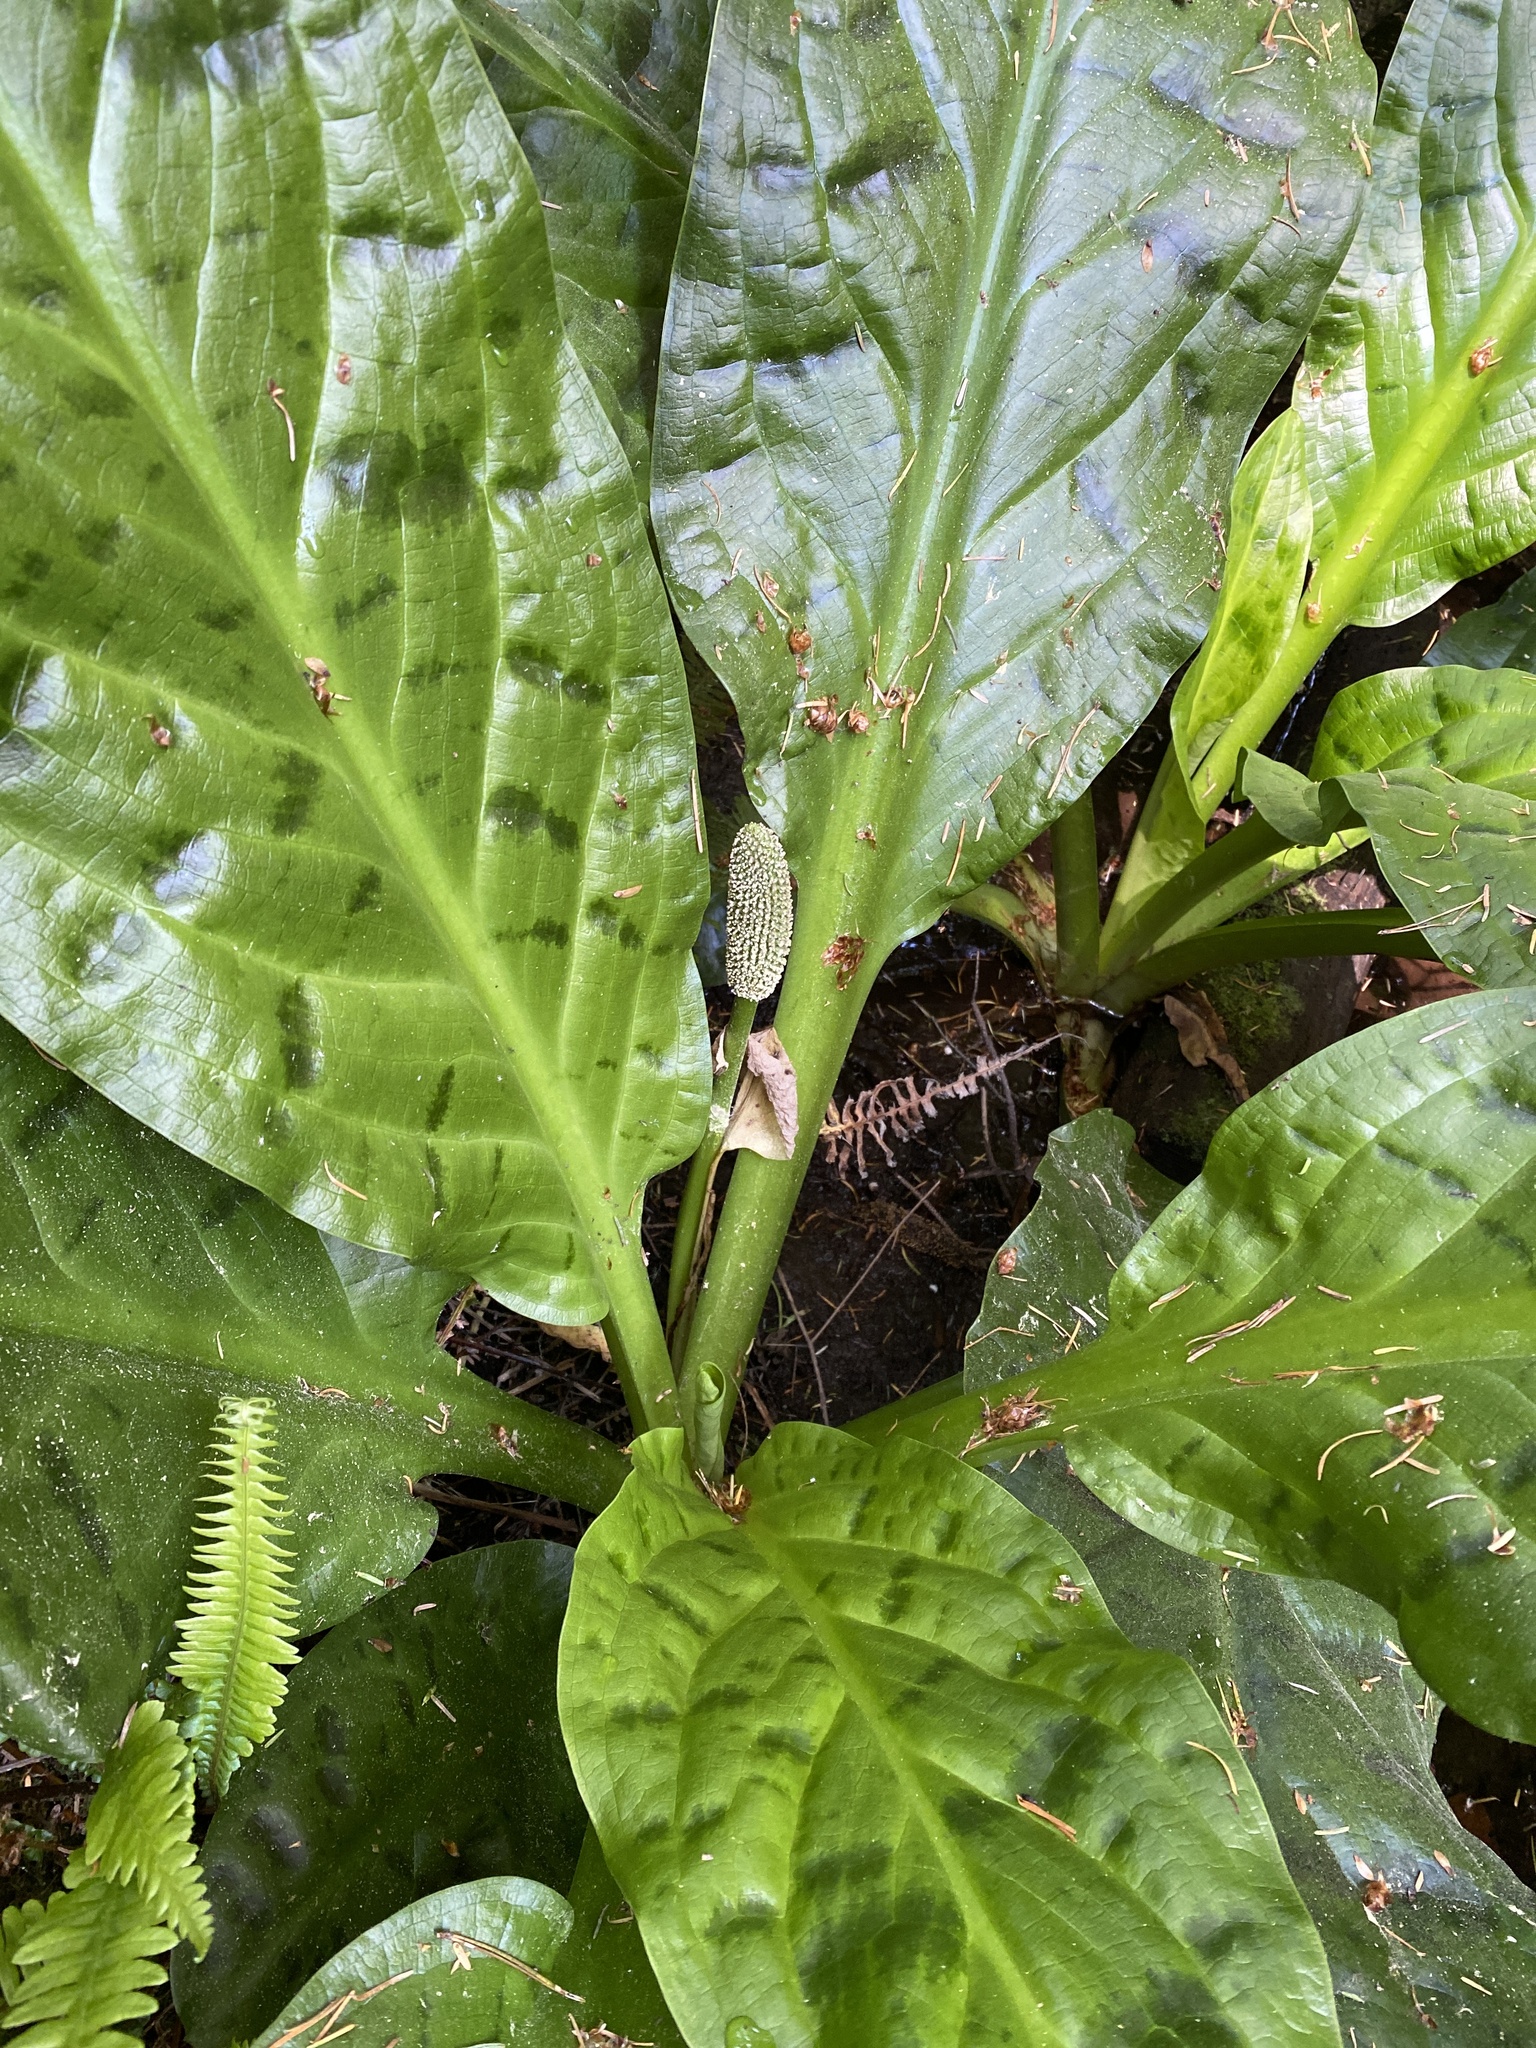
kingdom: Plantae
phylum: Tracheophyta
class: Liliopsida
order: Alismatales
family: Araceae
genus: Lysichiton
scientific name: Lysichiton americanus
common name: American skunk cabbage
